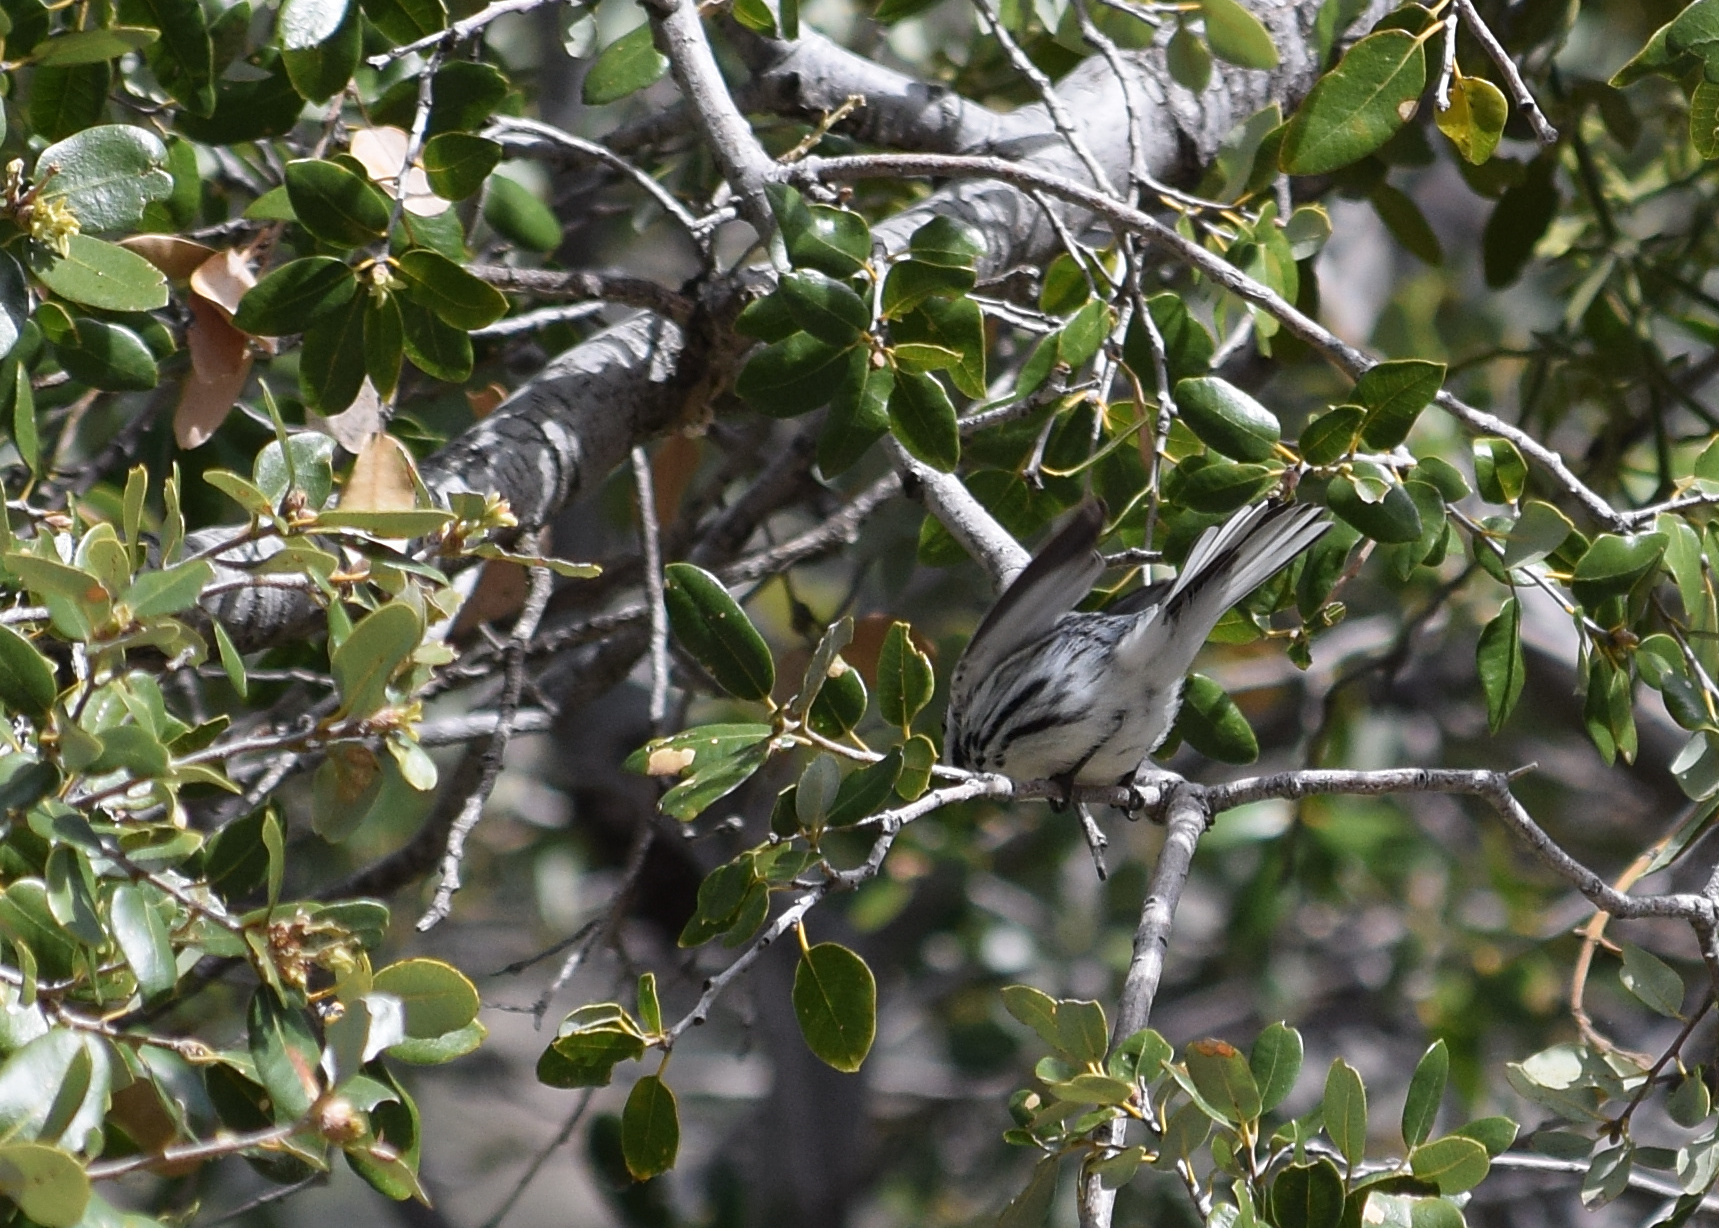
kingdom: Animalia
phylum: Chordata
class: Aves
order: Passeriformes
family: Parulidae
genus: Setophaga
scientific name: Setophaga nigrescens
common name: Black-throated gray warbler
